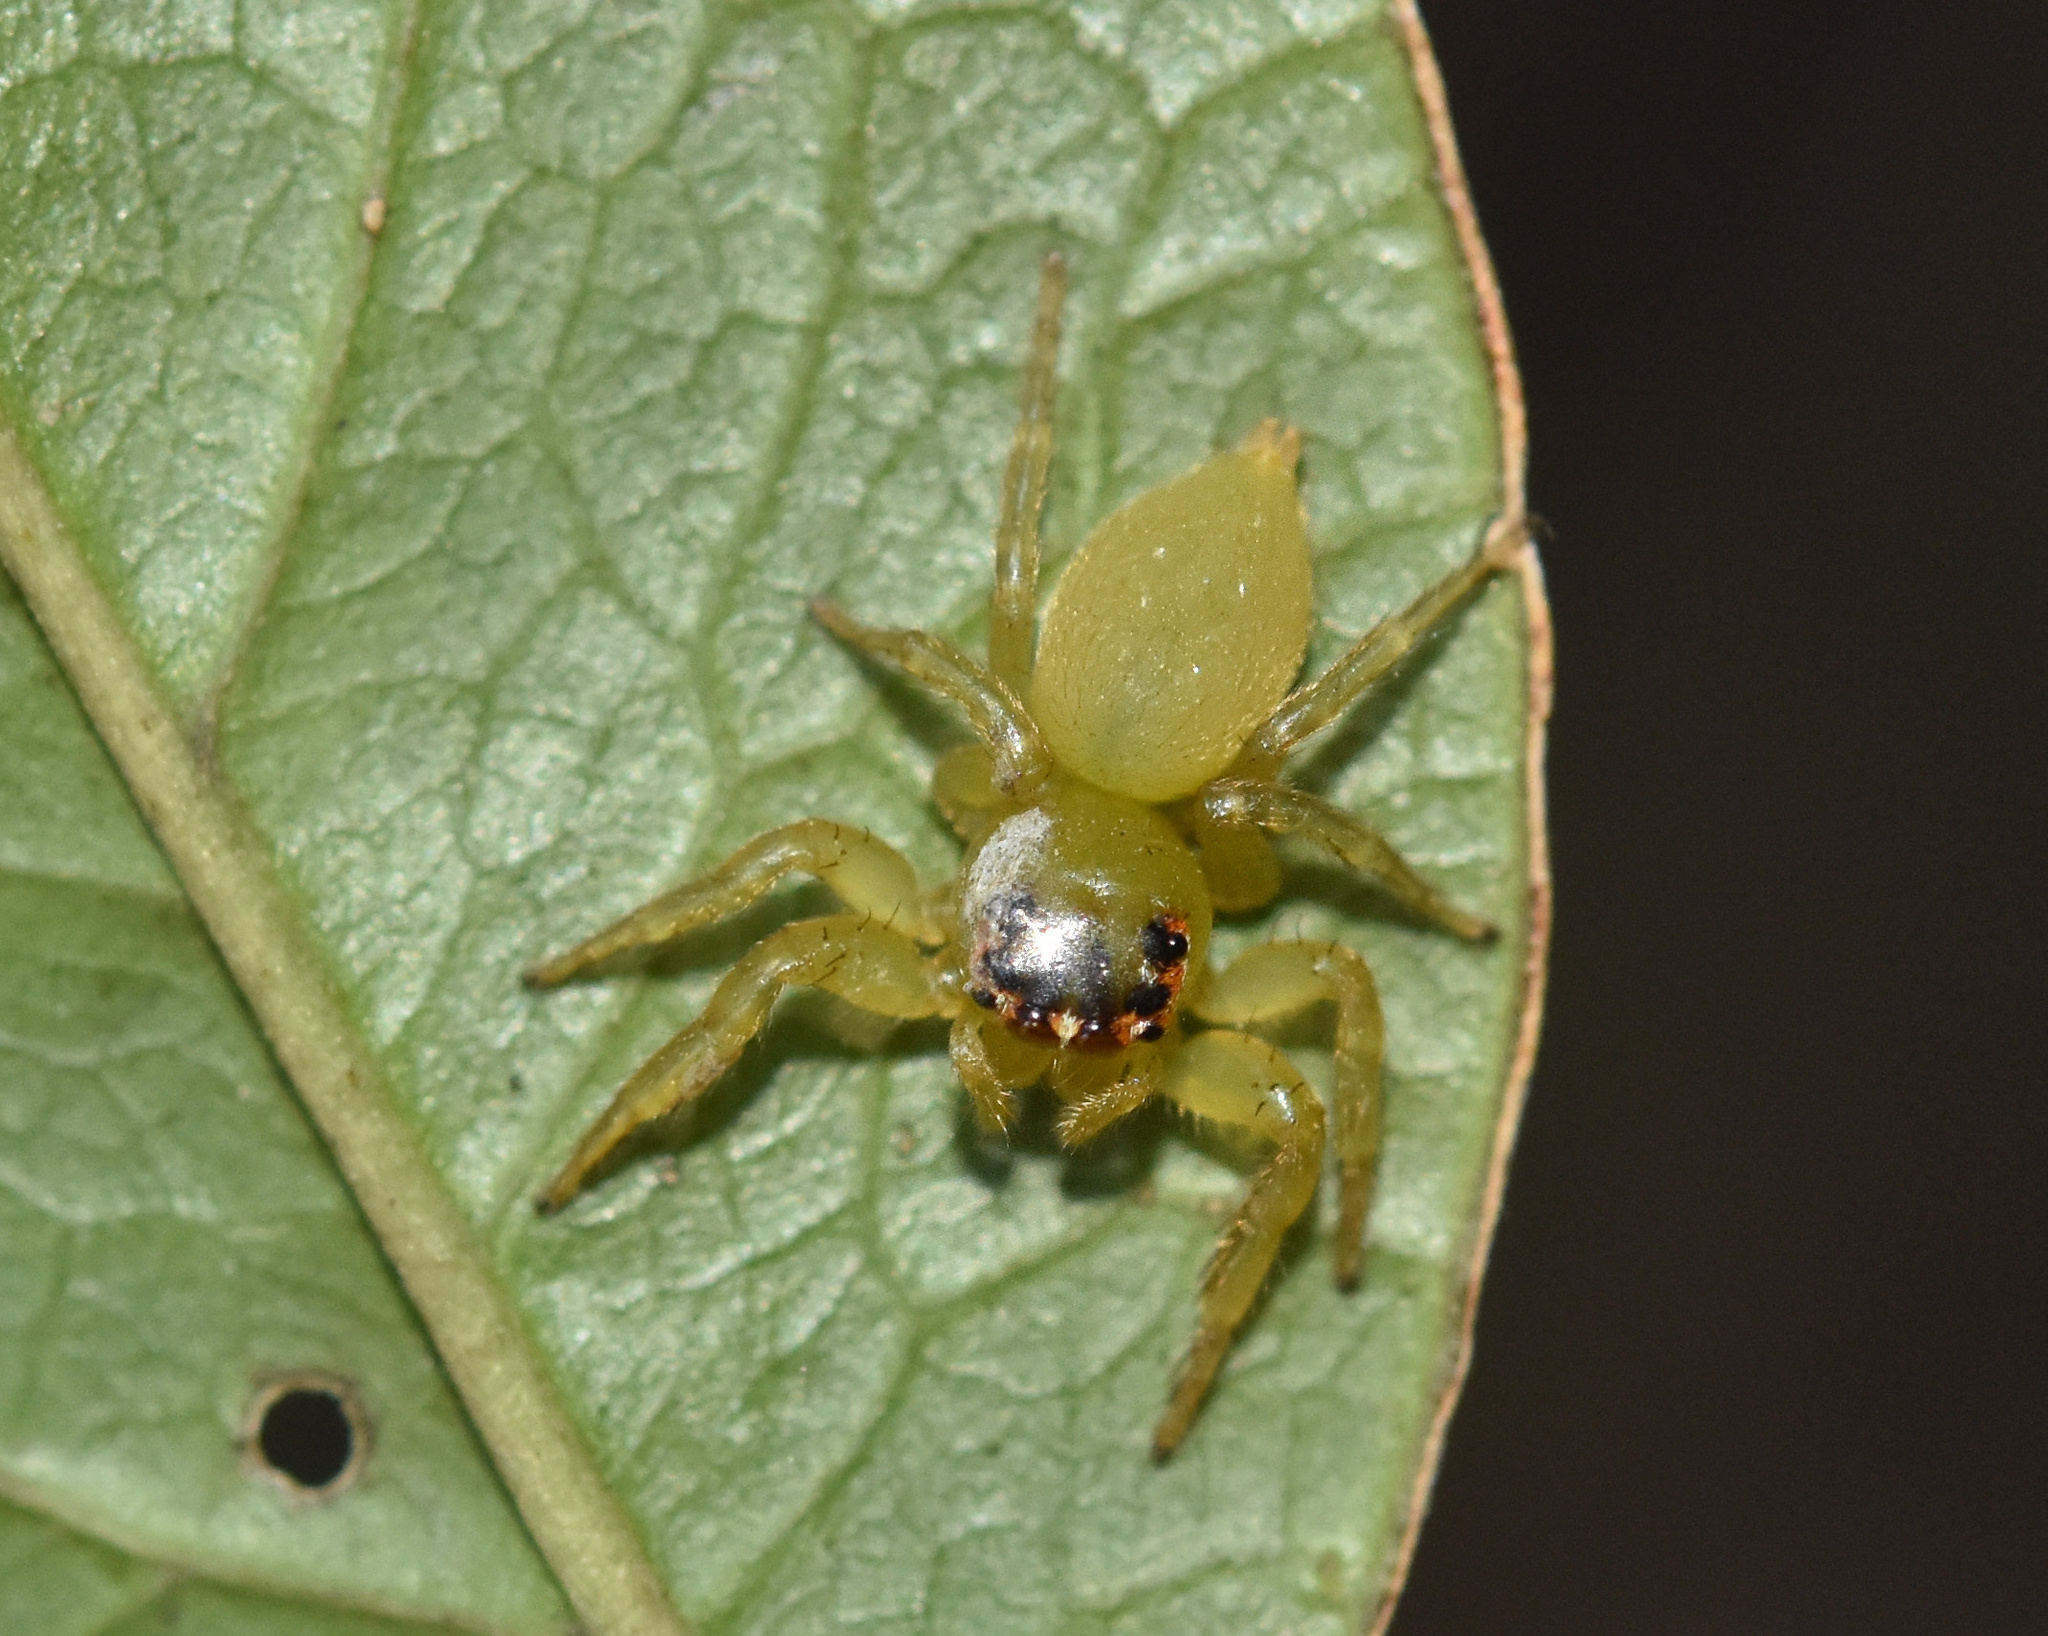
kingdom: Animalia
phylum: Arthropoda
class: Arachnida
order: Araneae
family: Salticidae
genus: Thyenula
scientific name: Thyenula juvenca
